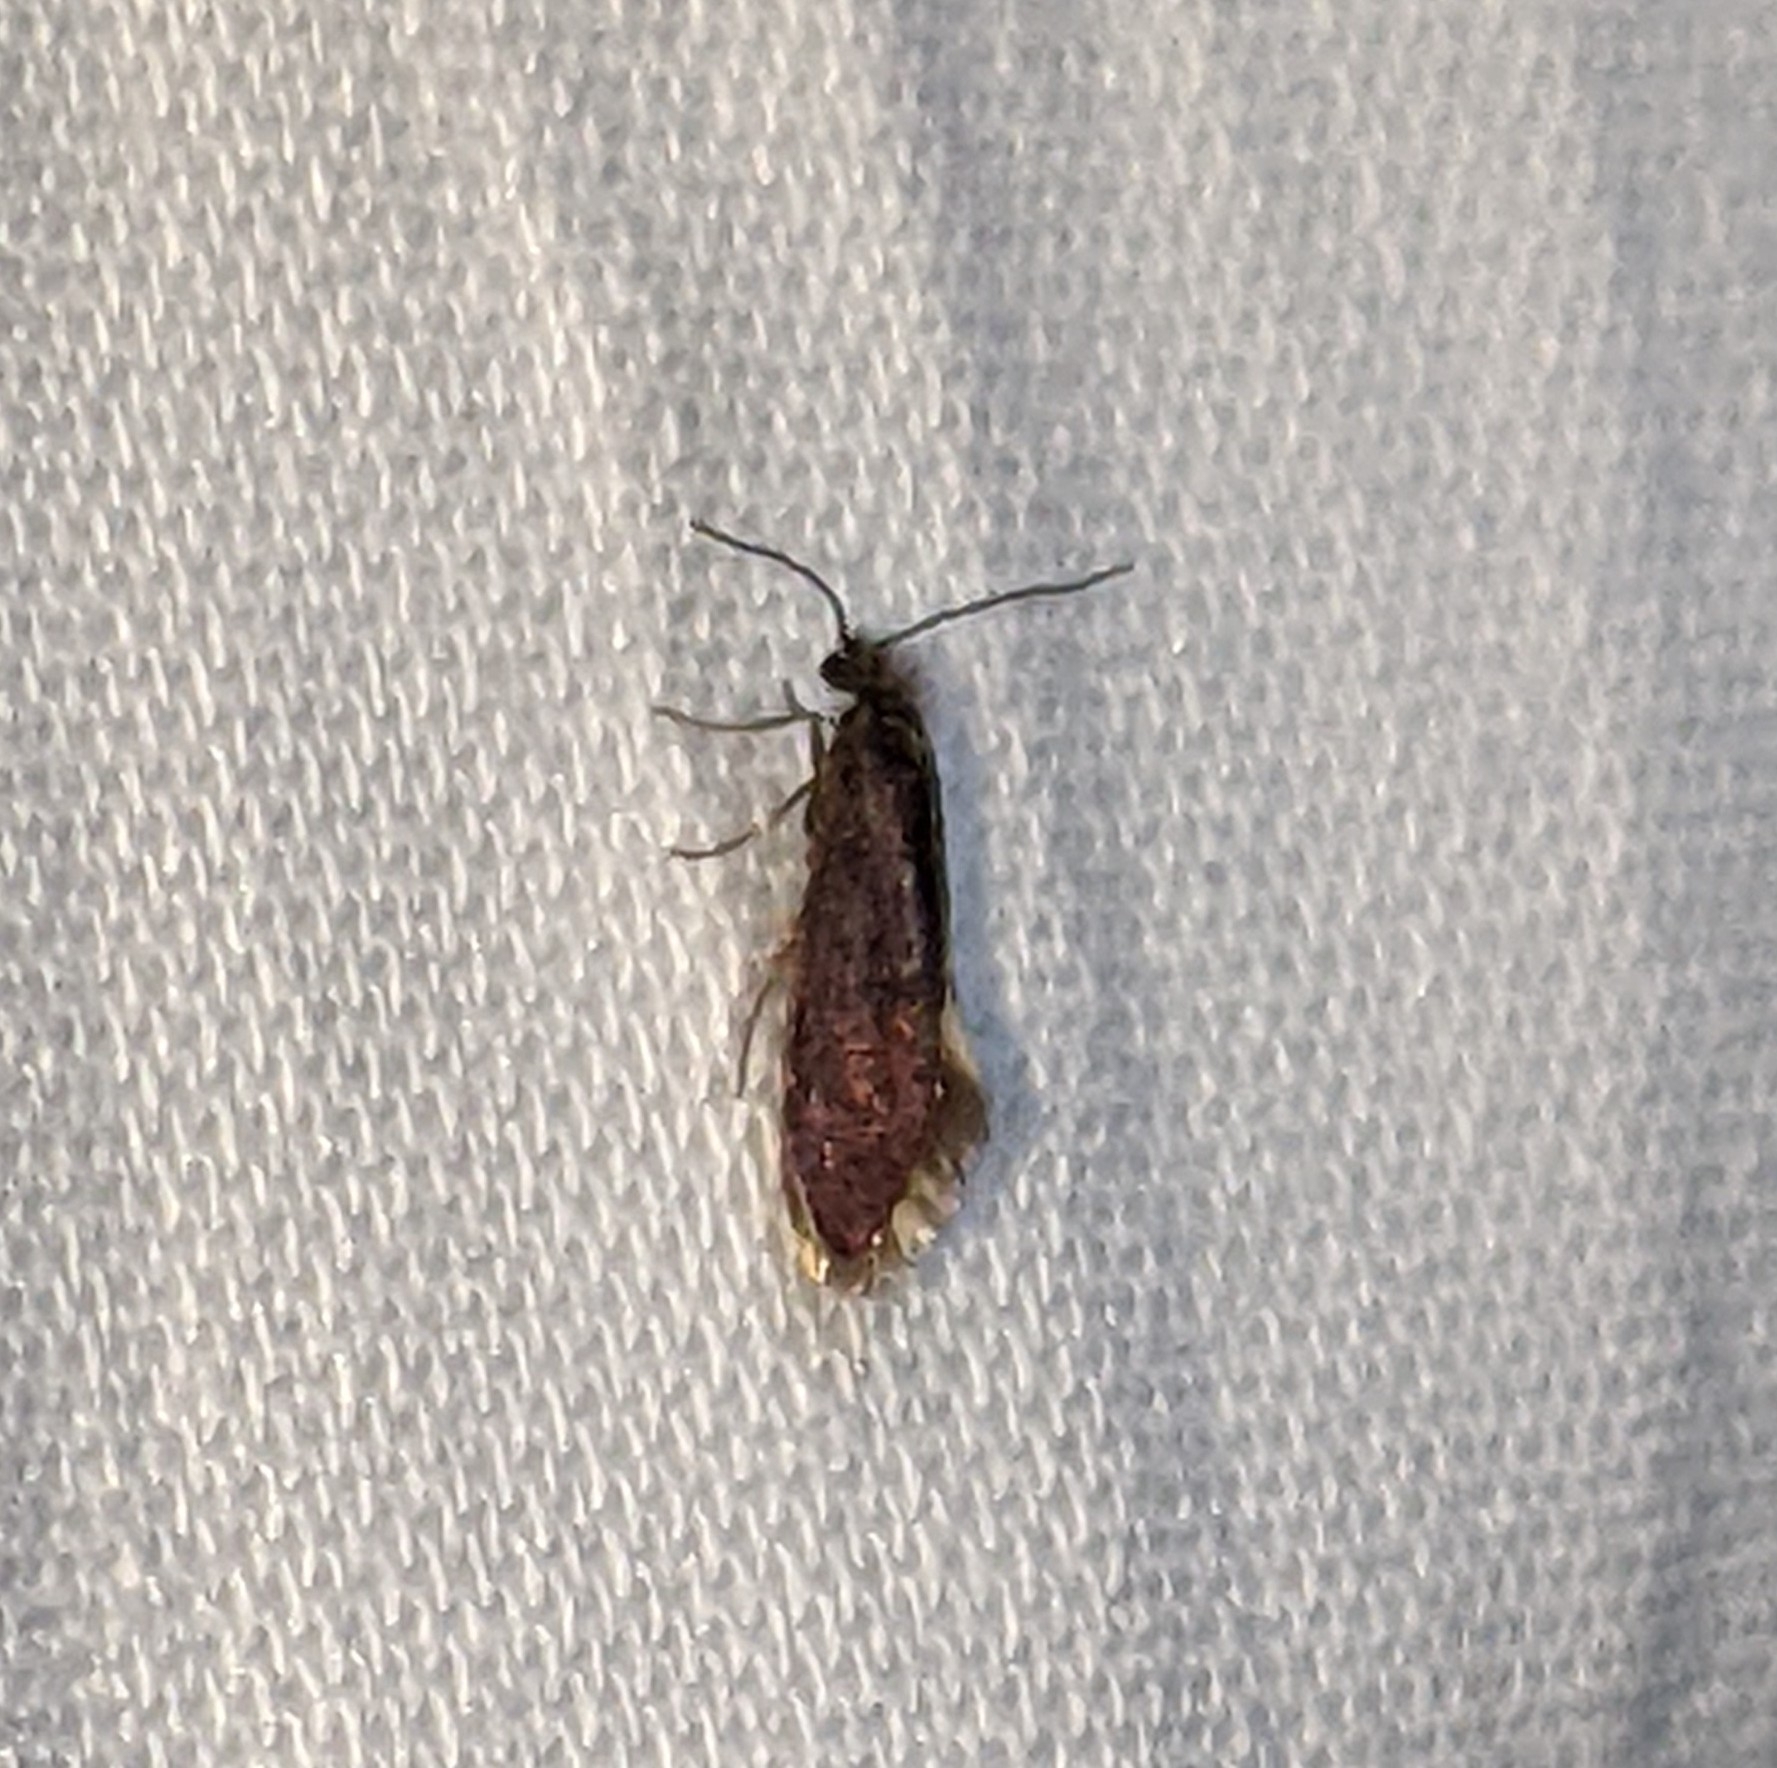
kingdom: Animalia
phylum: Arthropoda
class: Insecta
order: Lepidoptera
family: Eriocraniidae
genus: Eriocrania
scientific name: Eriocrania semipurpurella
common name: Early purple
